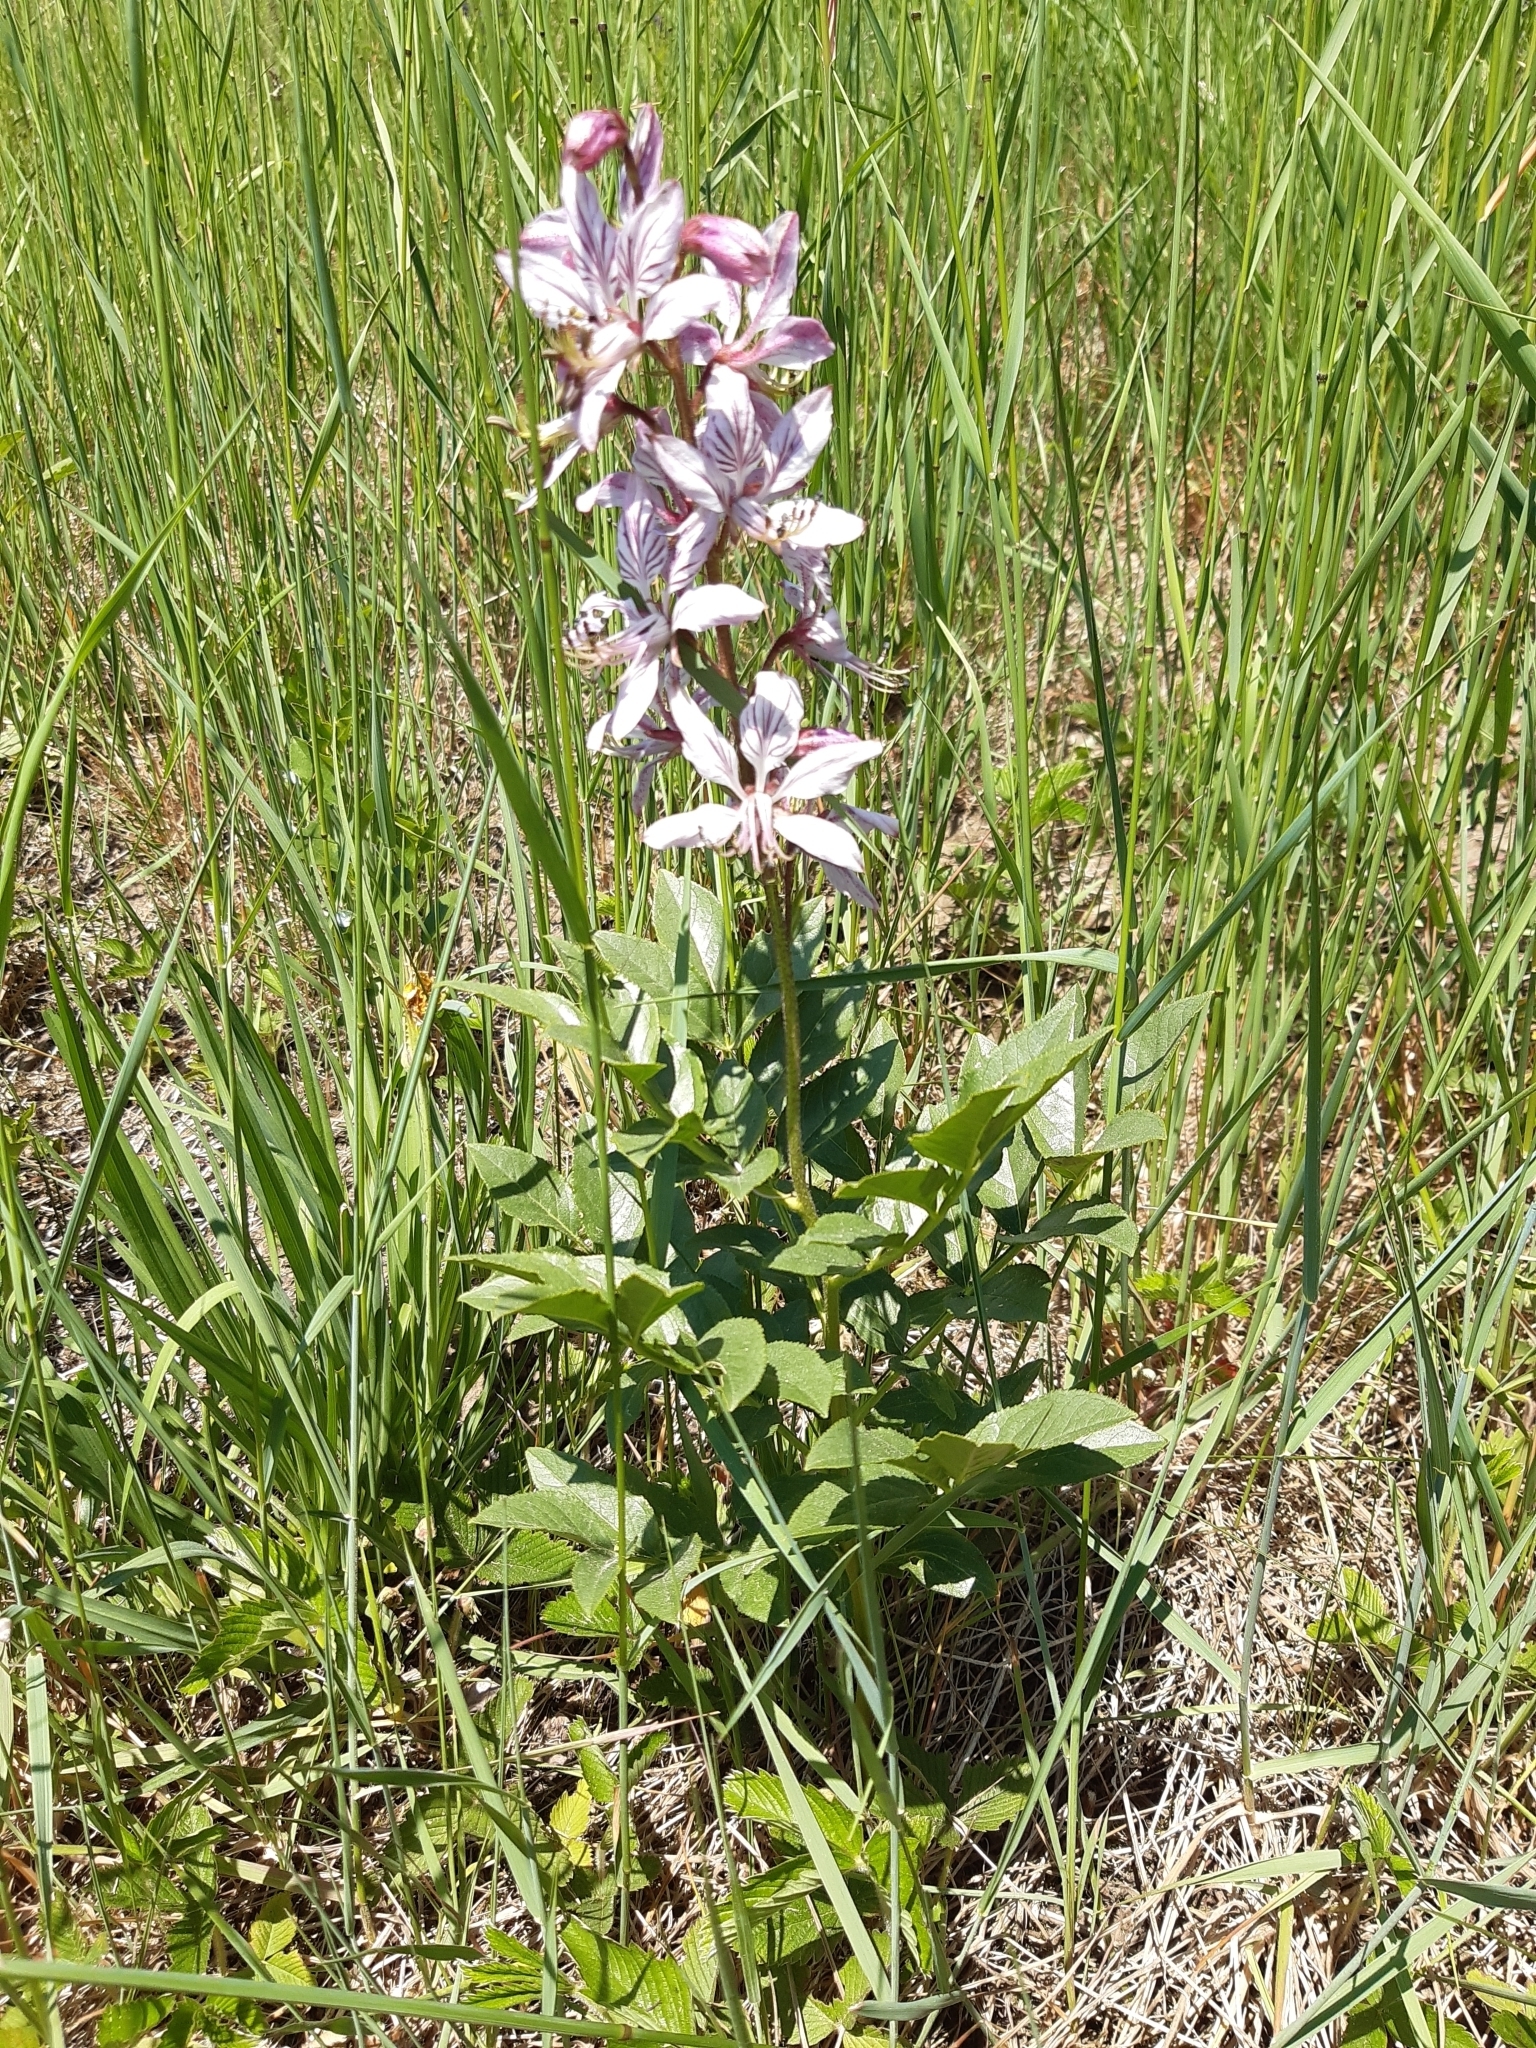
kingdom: Plantae
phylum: Tracheophyta
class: Magnoliopsida
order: Sapindales
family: Rutaceae
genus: Dictamnus
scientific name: Dictamnus albus
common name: Gasplant
